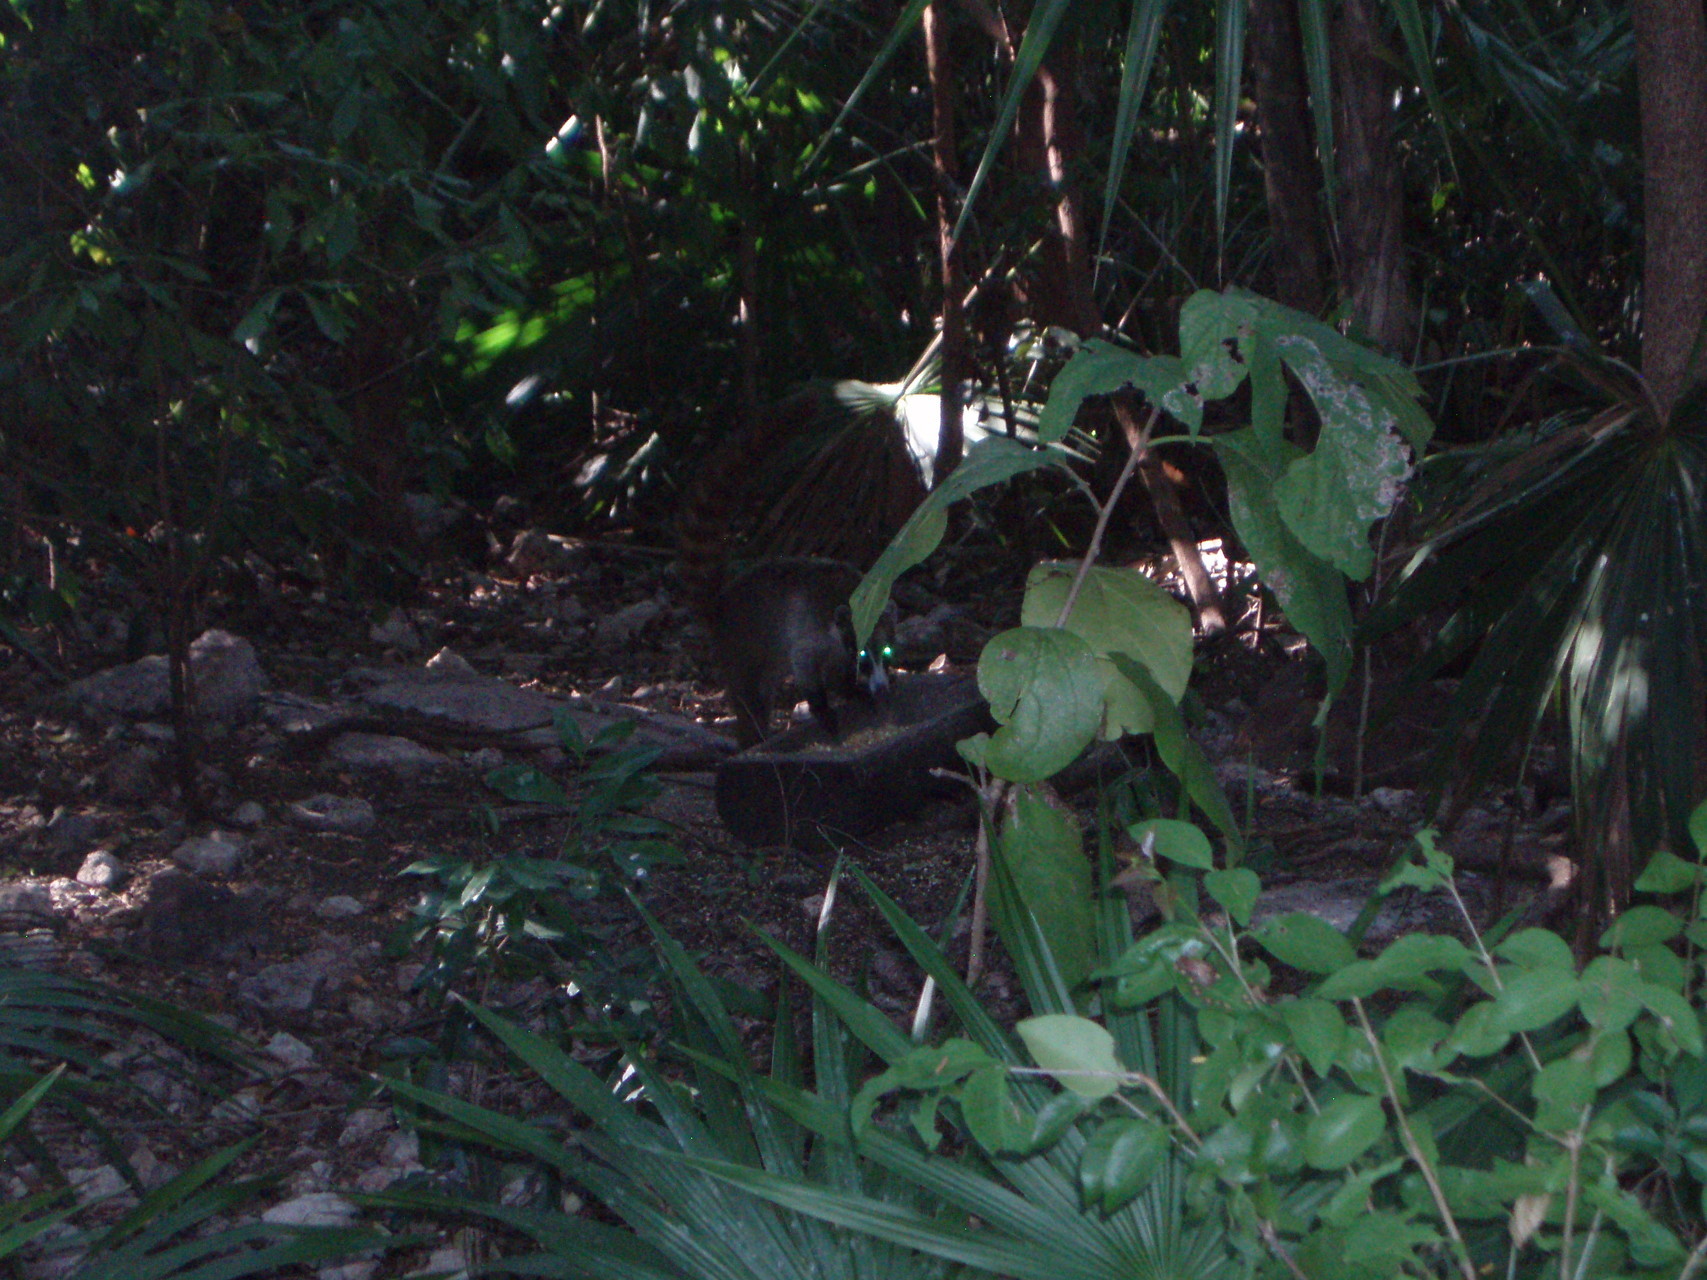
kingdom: Animalia
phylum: Chordata
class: Mammalia
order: Carnivora
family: Procyonidae
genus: Nasua
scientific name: Nasua narica
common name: White-nosed coati
